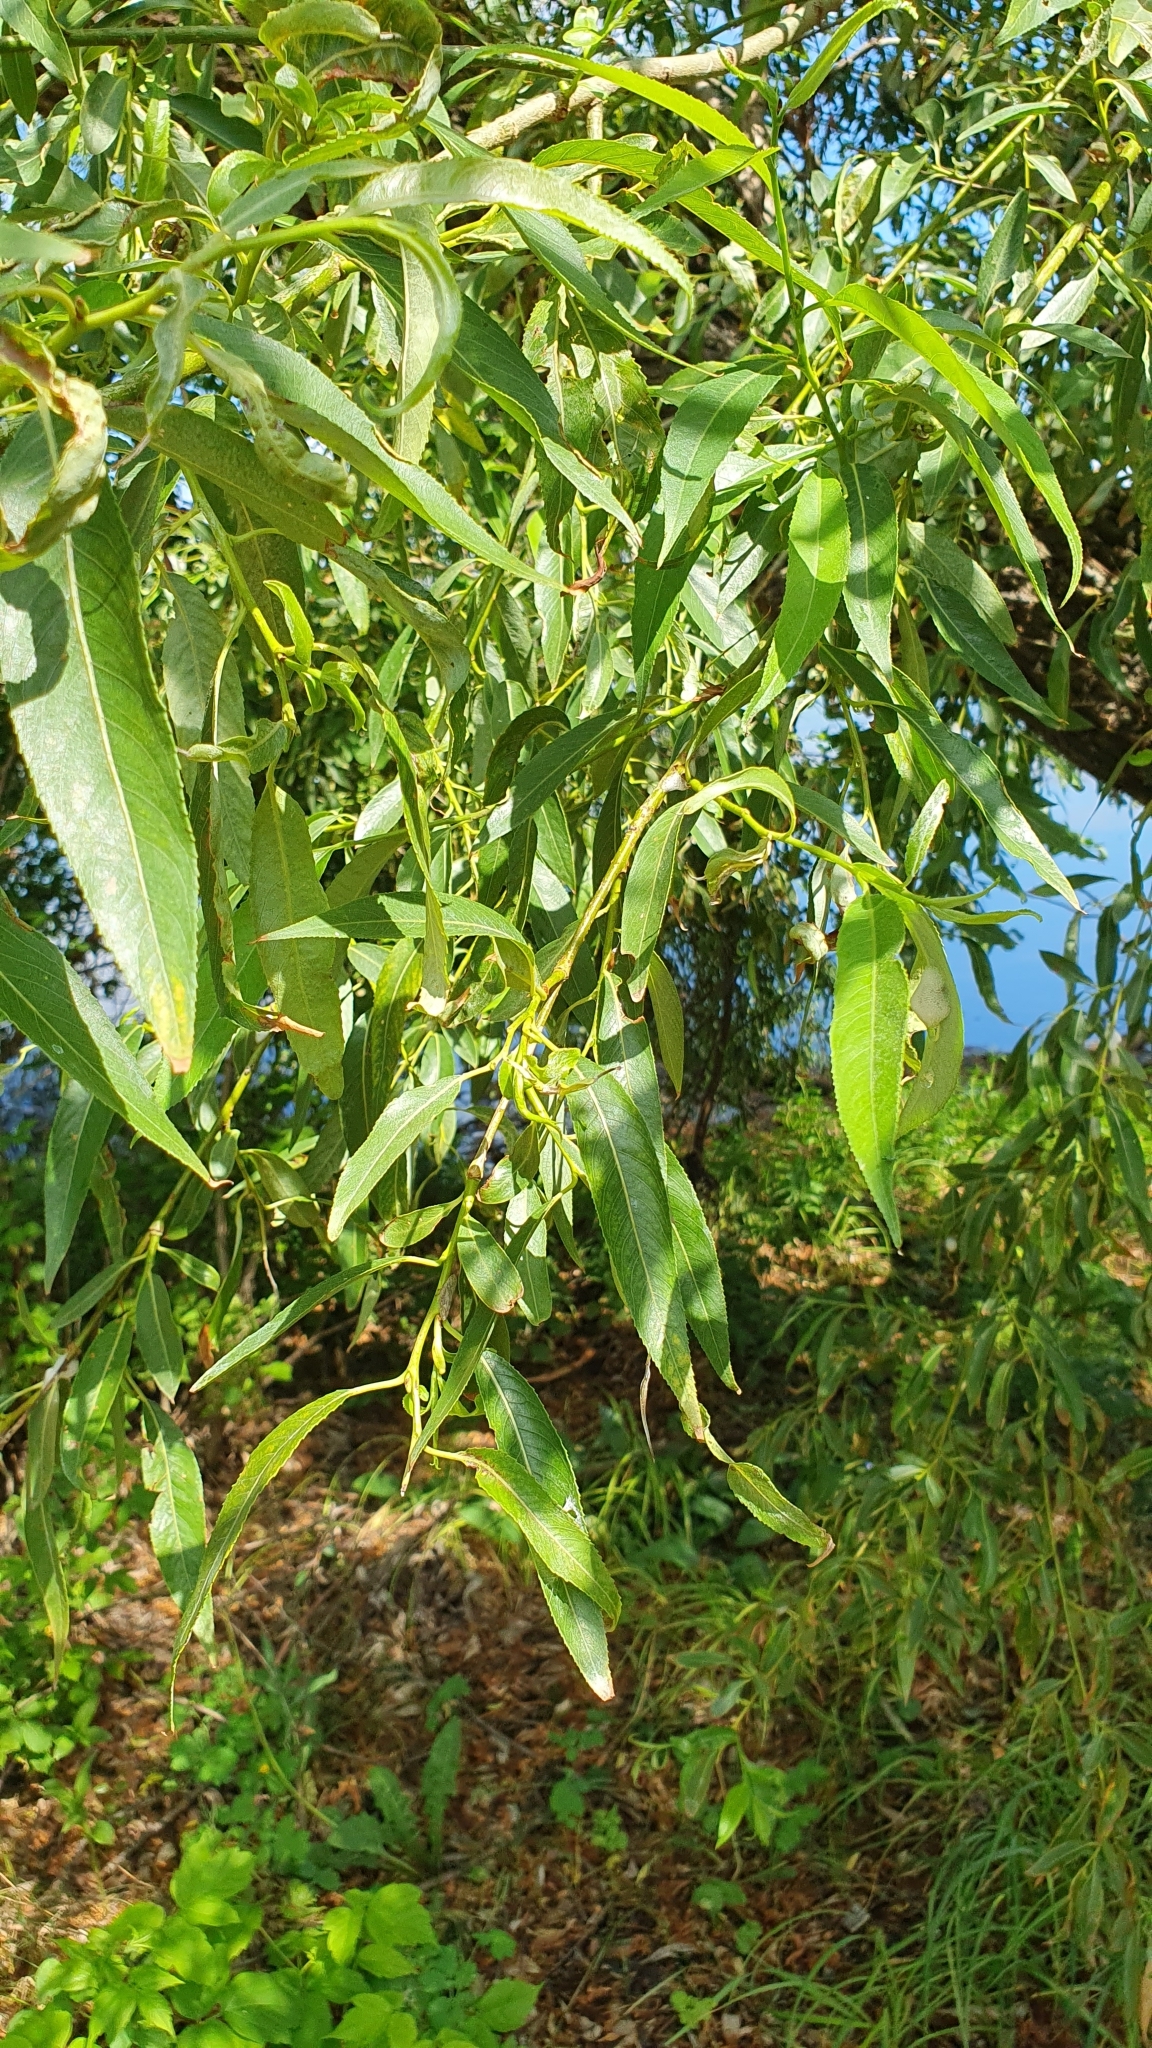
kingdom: Plantae
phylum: Tracheophyta
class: Magnoliopsida
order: Malpighiales
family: Salicaceae
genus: Salix
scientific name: Salix alba
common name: White willow
